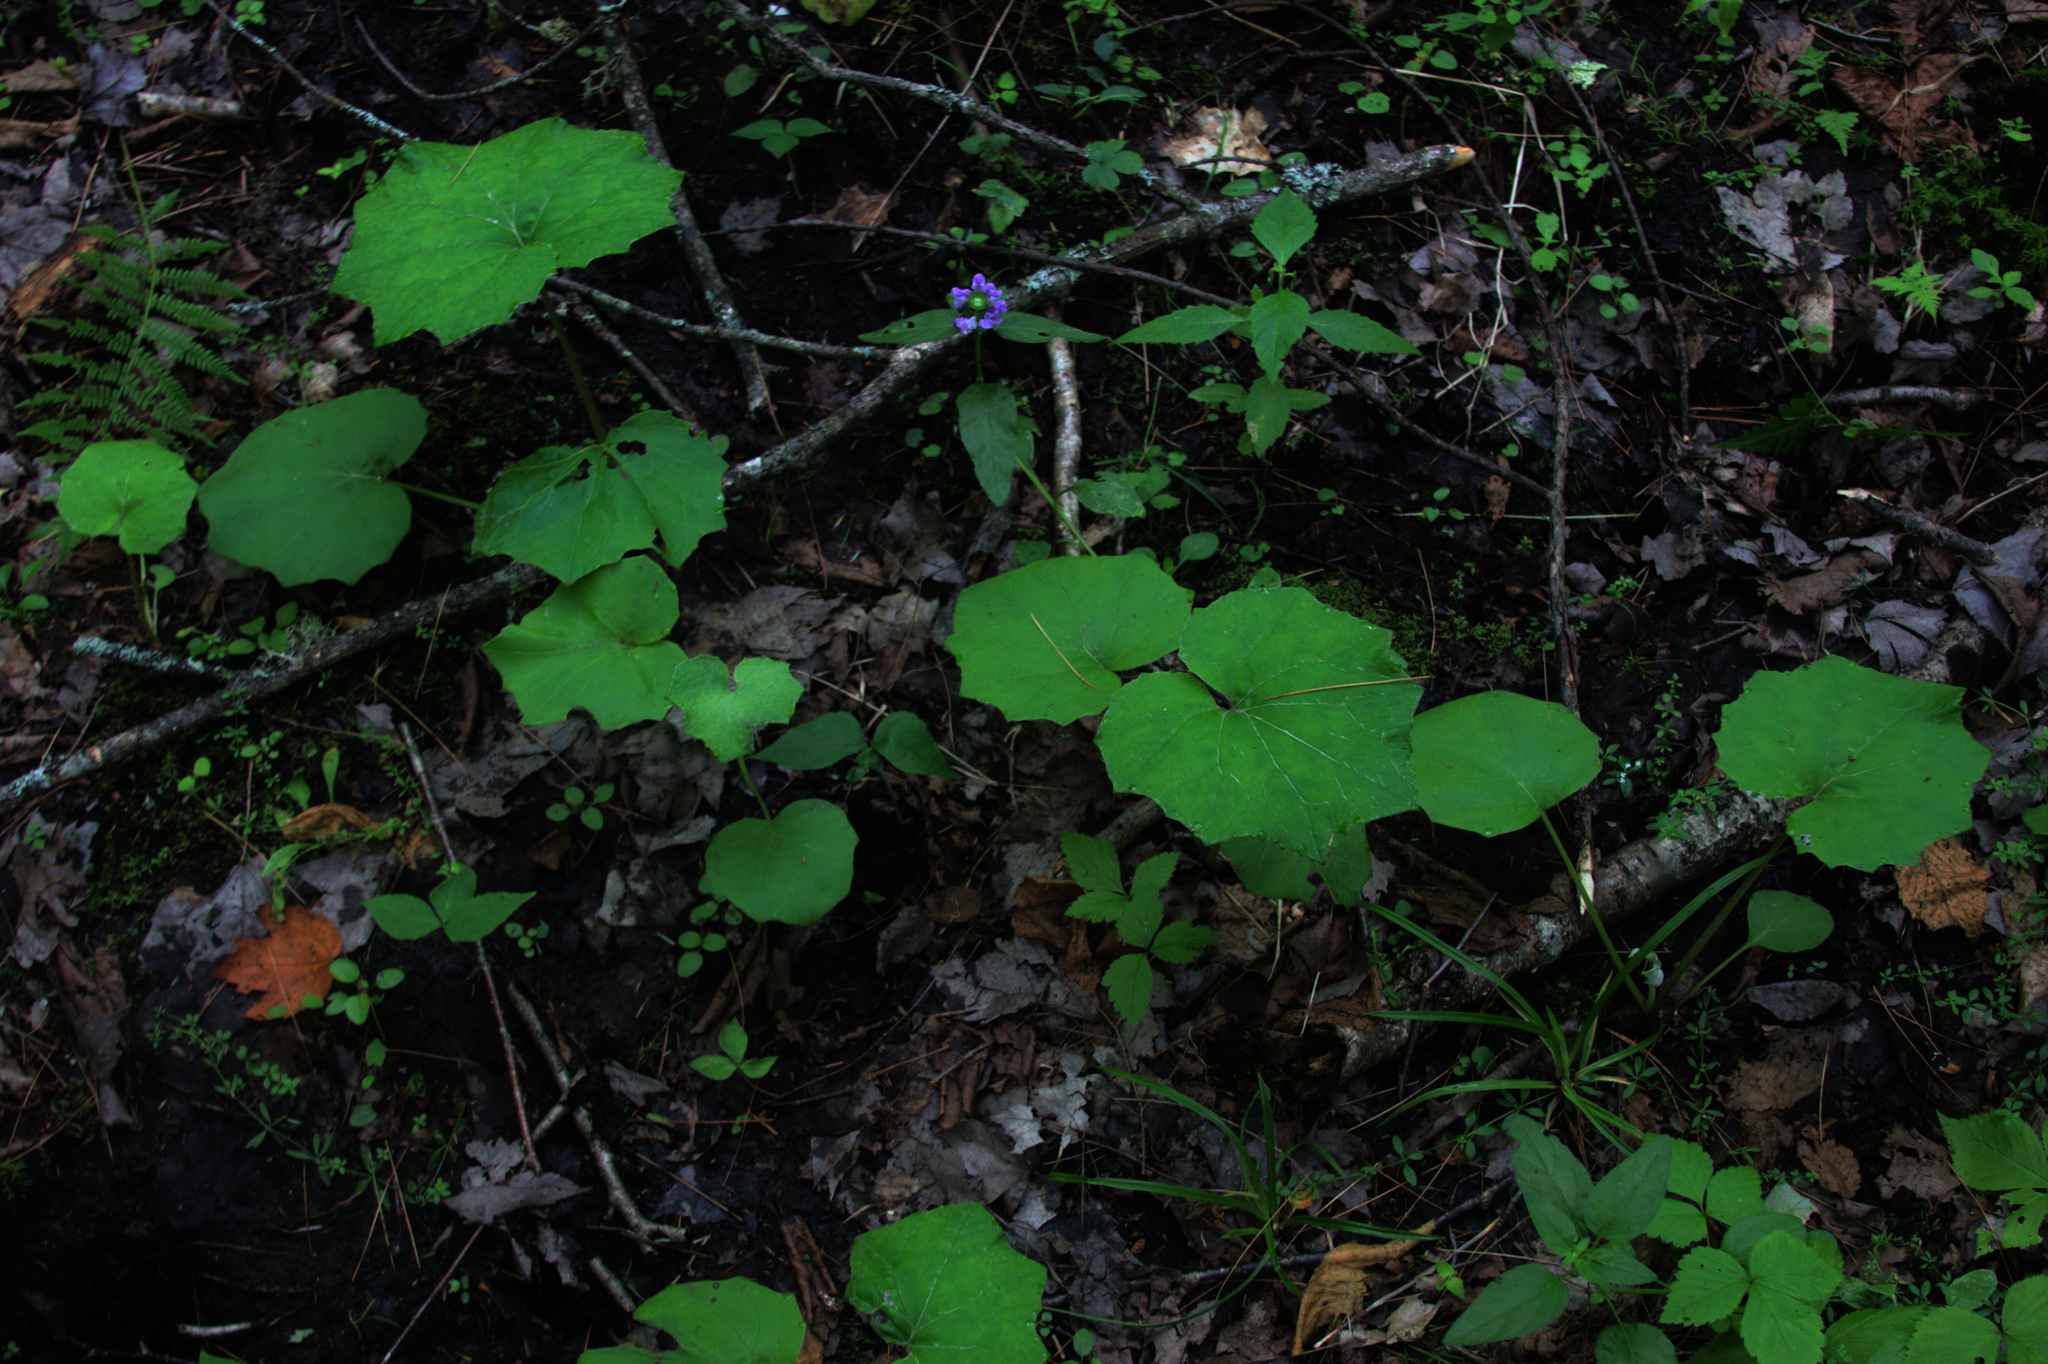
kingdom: Plantae
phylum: Tracheophyta
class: Magnoliopsida
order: Asterales
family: Asteraceae
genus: Tussilago
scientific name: Tussilago farfara
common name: Coltsfoot
